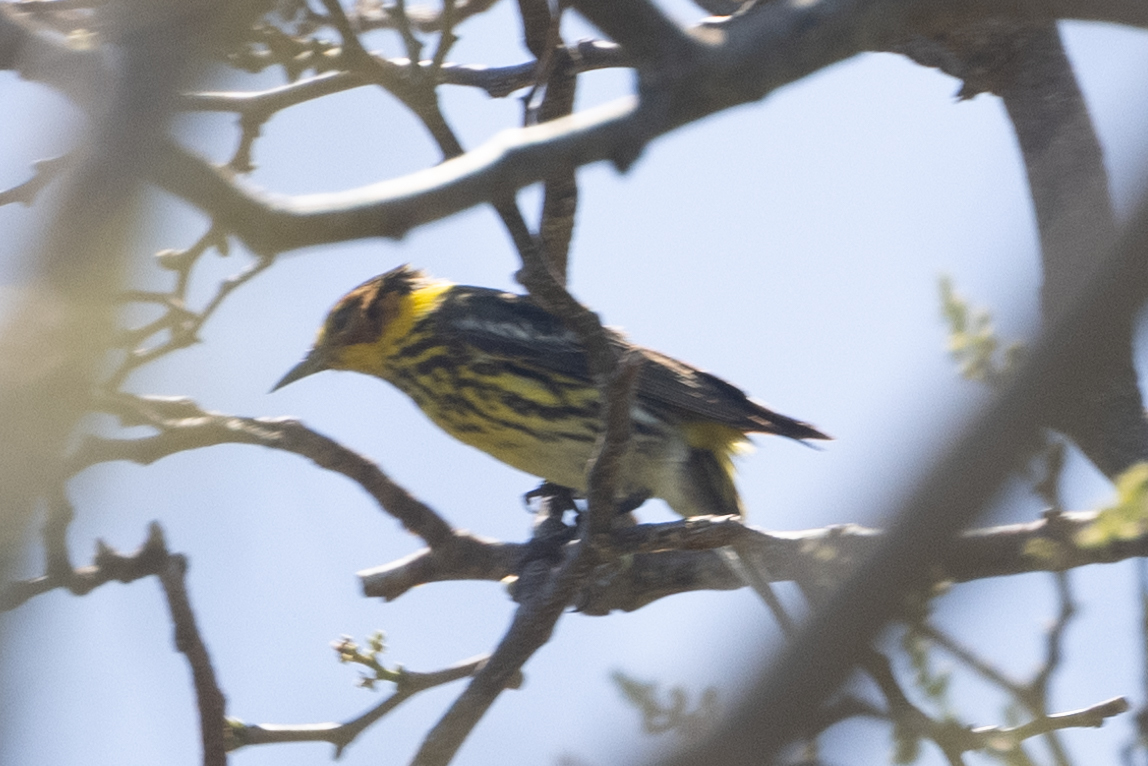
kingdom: Animalia
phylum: Chordata
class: Aves
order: Passeriformes
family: Parulidae
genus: Setophaga
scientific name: Setophaga tigrina
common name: Cape may warbler
